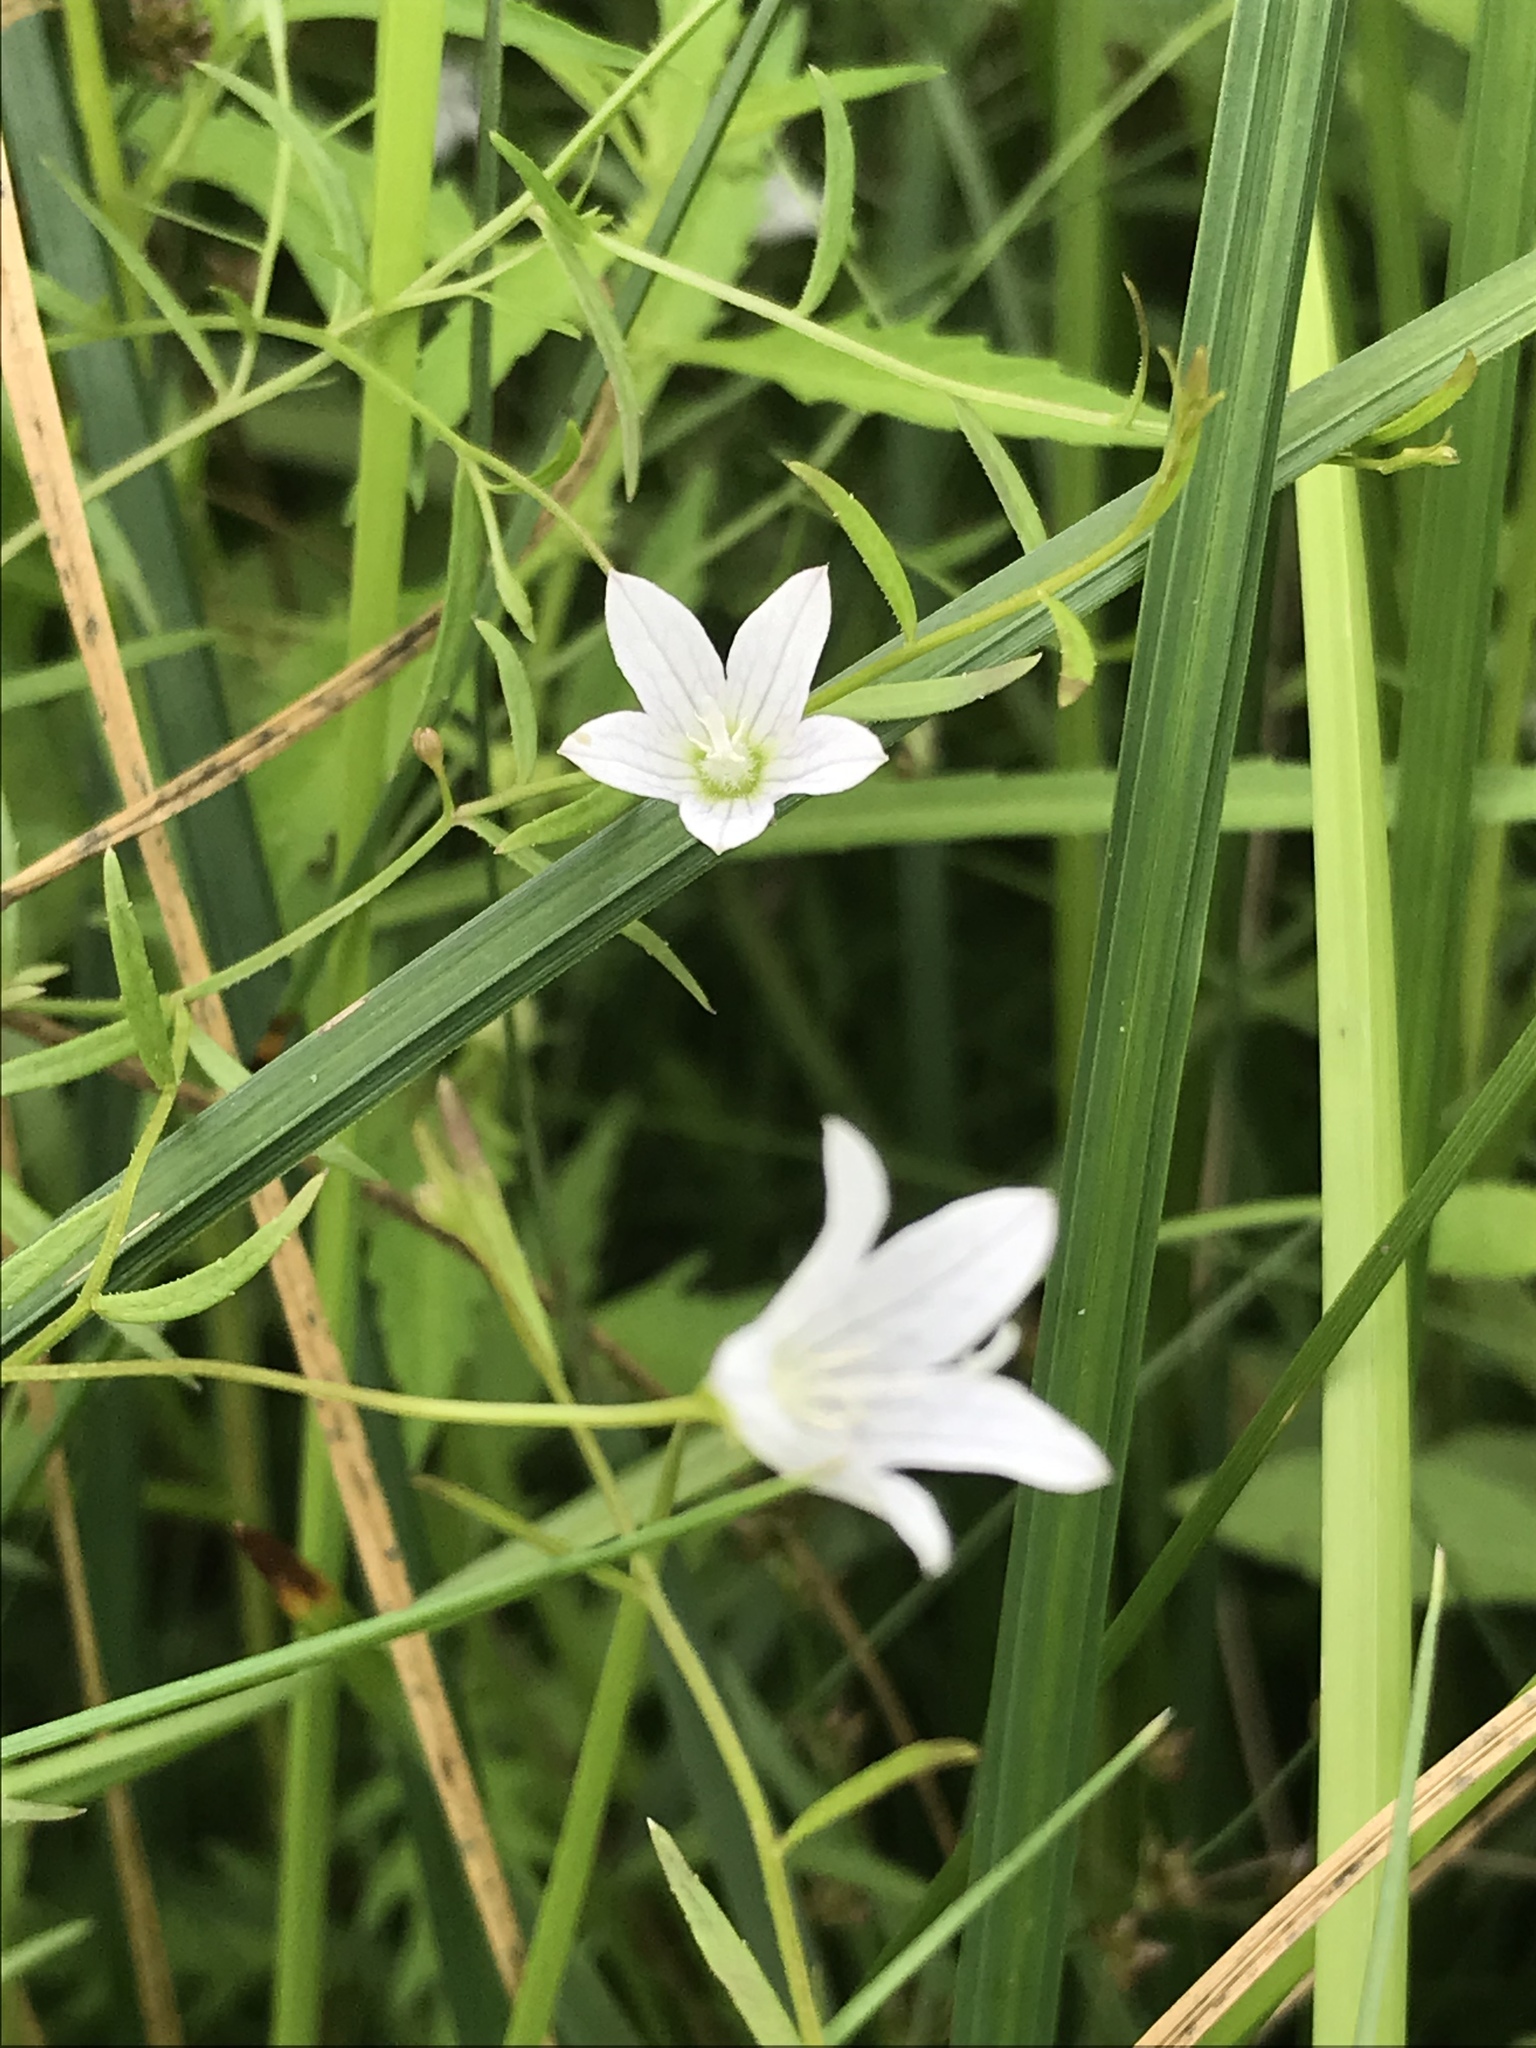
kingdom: Plantae
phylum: Tracheophyta
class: Magnoliopsida
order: Asterales
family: Campanulaceae
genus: Palustricodon
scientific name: Palustricodon aparinoides
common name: Bedstraw bellflower
